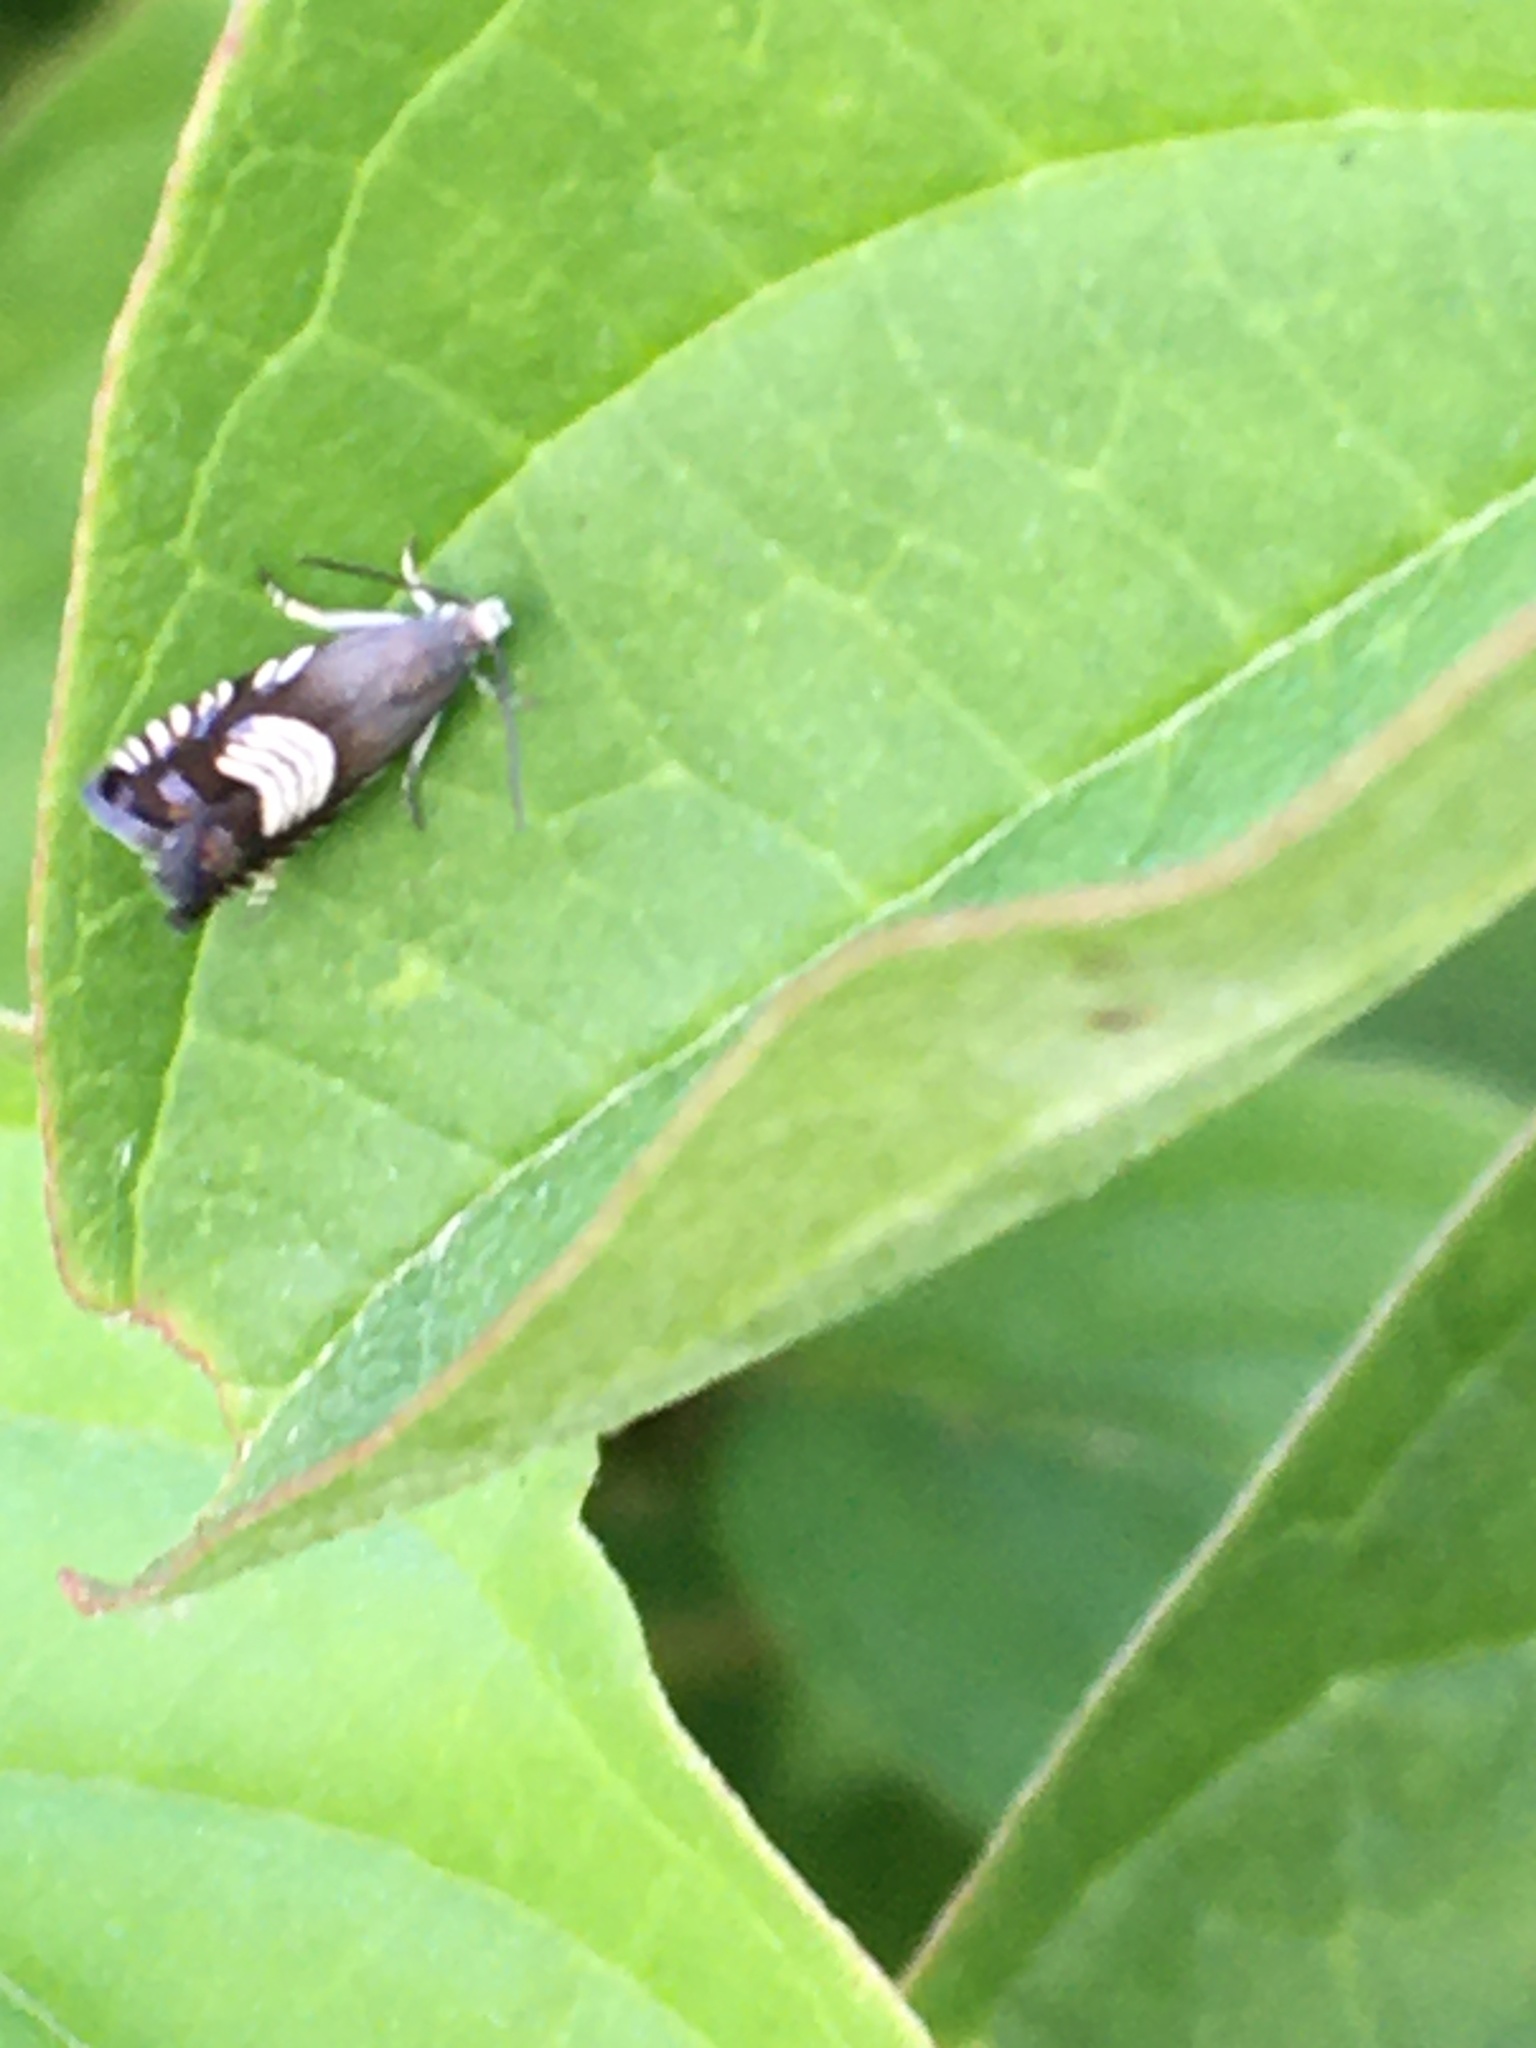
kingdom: Animalia
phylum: Arthropoda
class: Insecta
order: Lepidoptera
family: Tortricidae
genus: Grapholita
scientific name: Grapholita compositella
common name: Triple-stripe piercer
